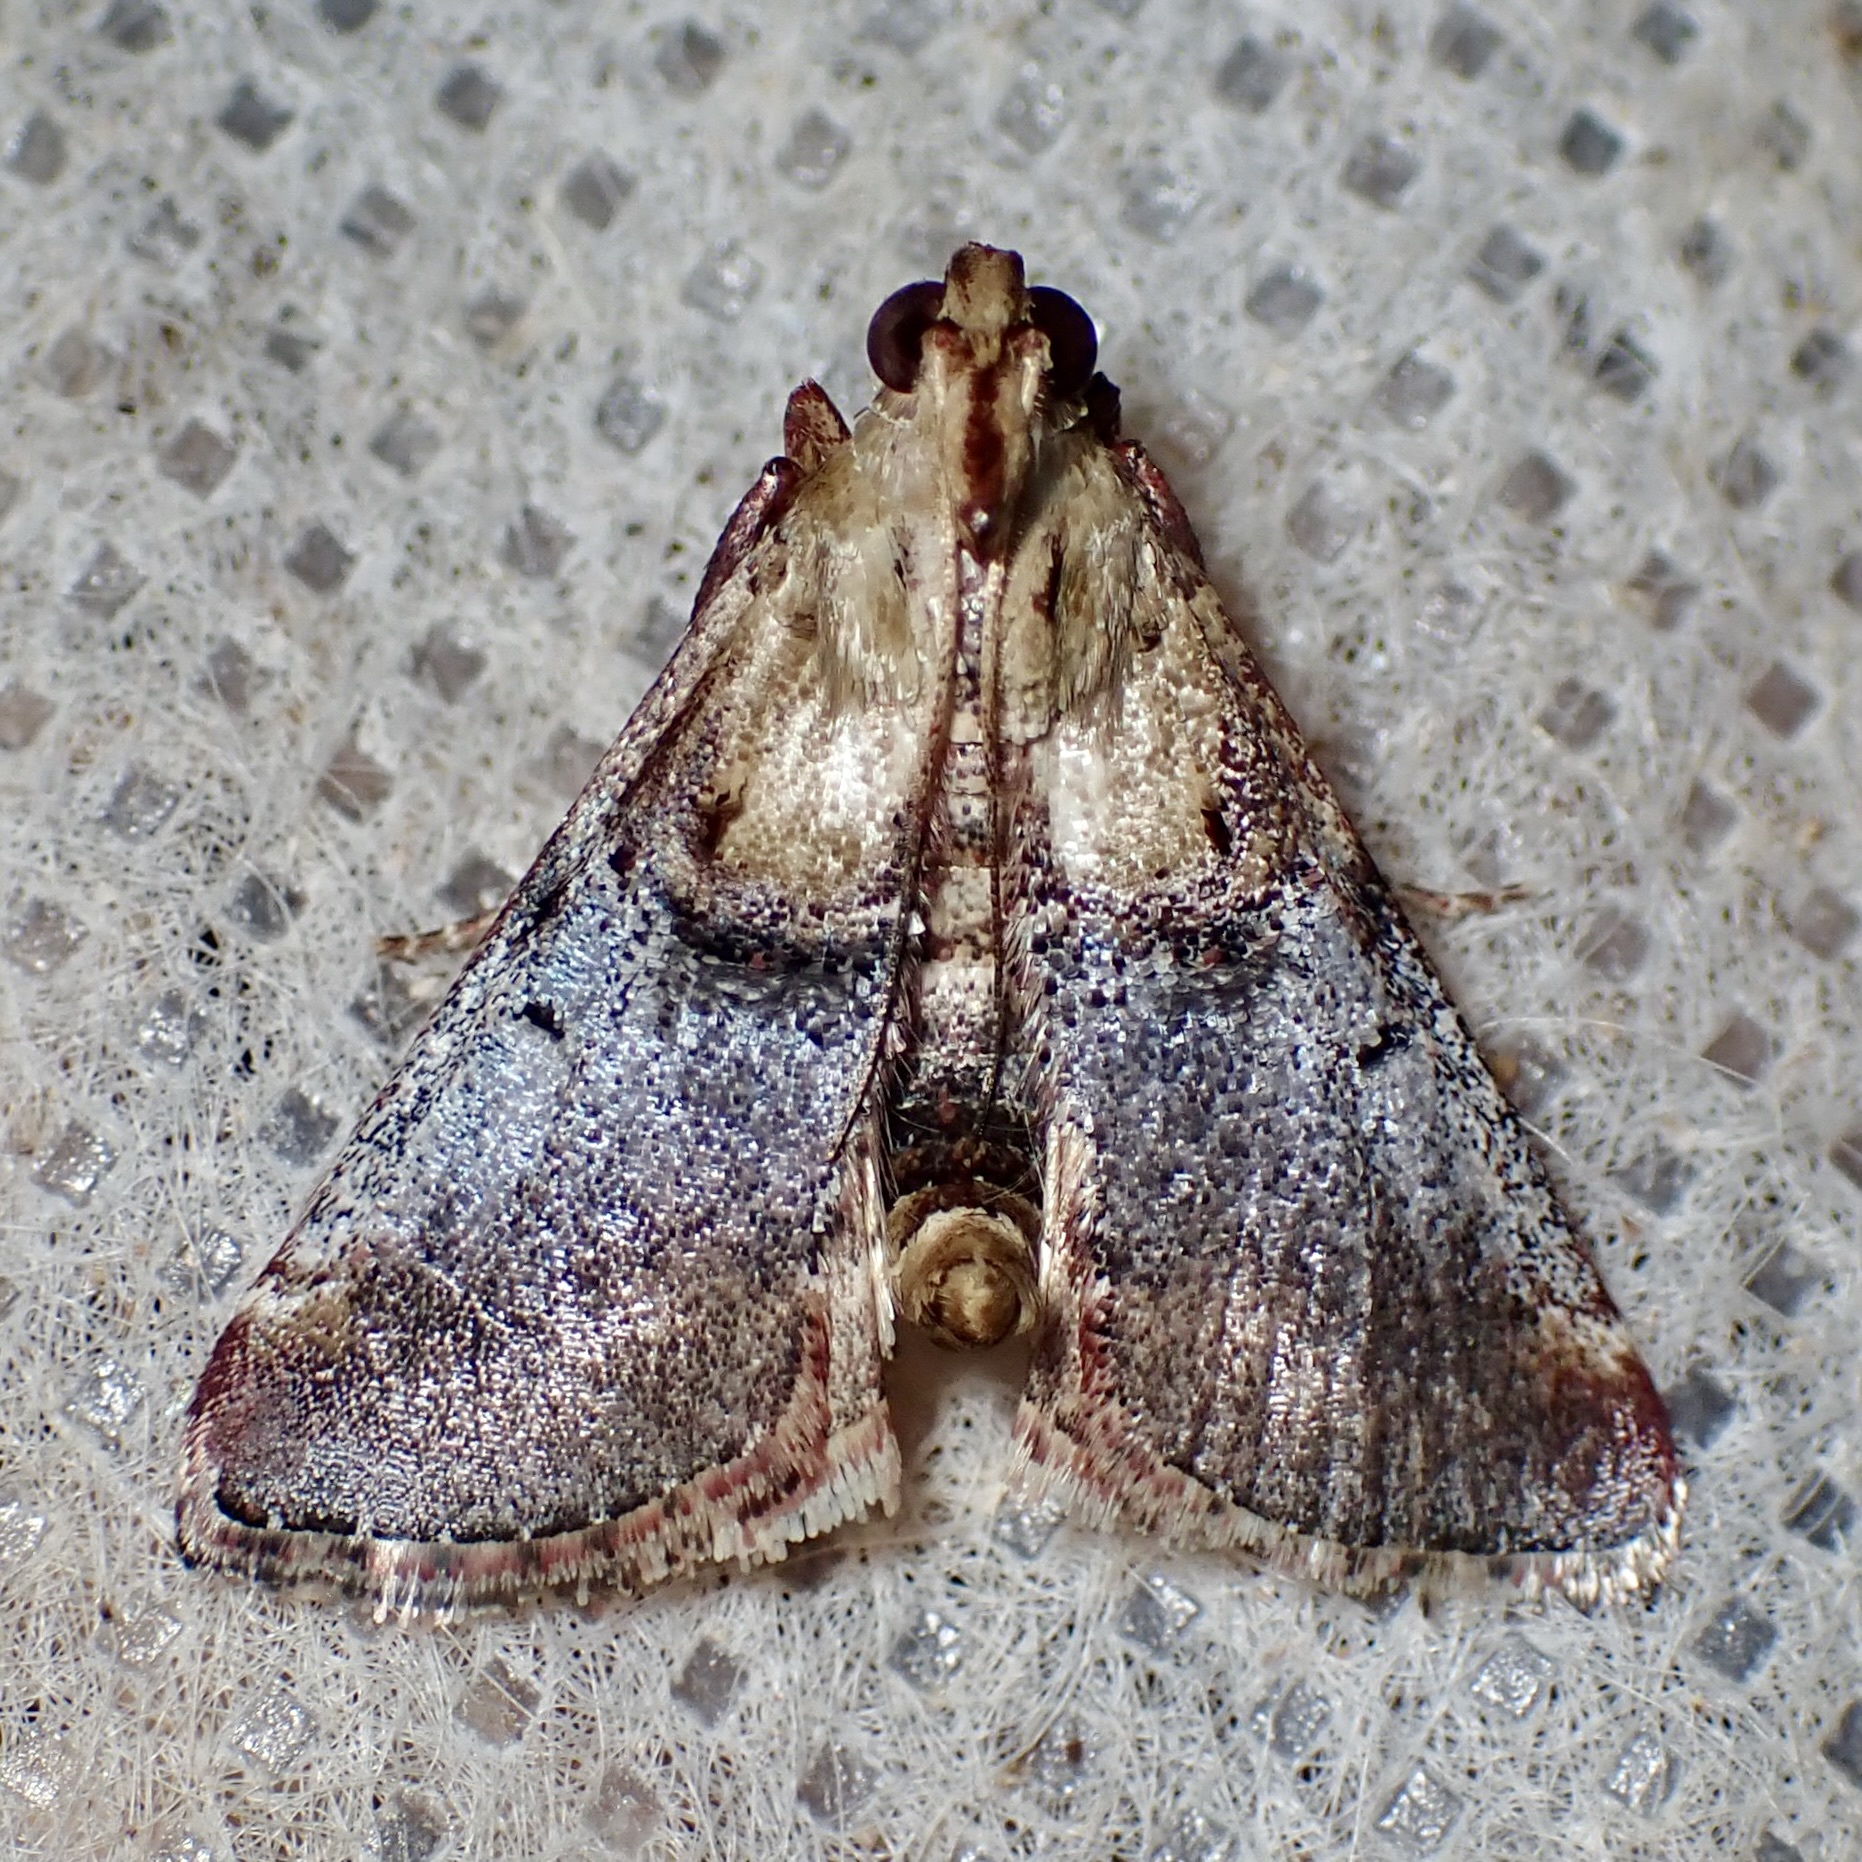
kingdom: Animalia
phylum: Arthropoda
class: Insecta
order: Lepidoptera
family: Pyralidae
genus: Cacozelia
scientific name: Cacozelia basiochrealis
